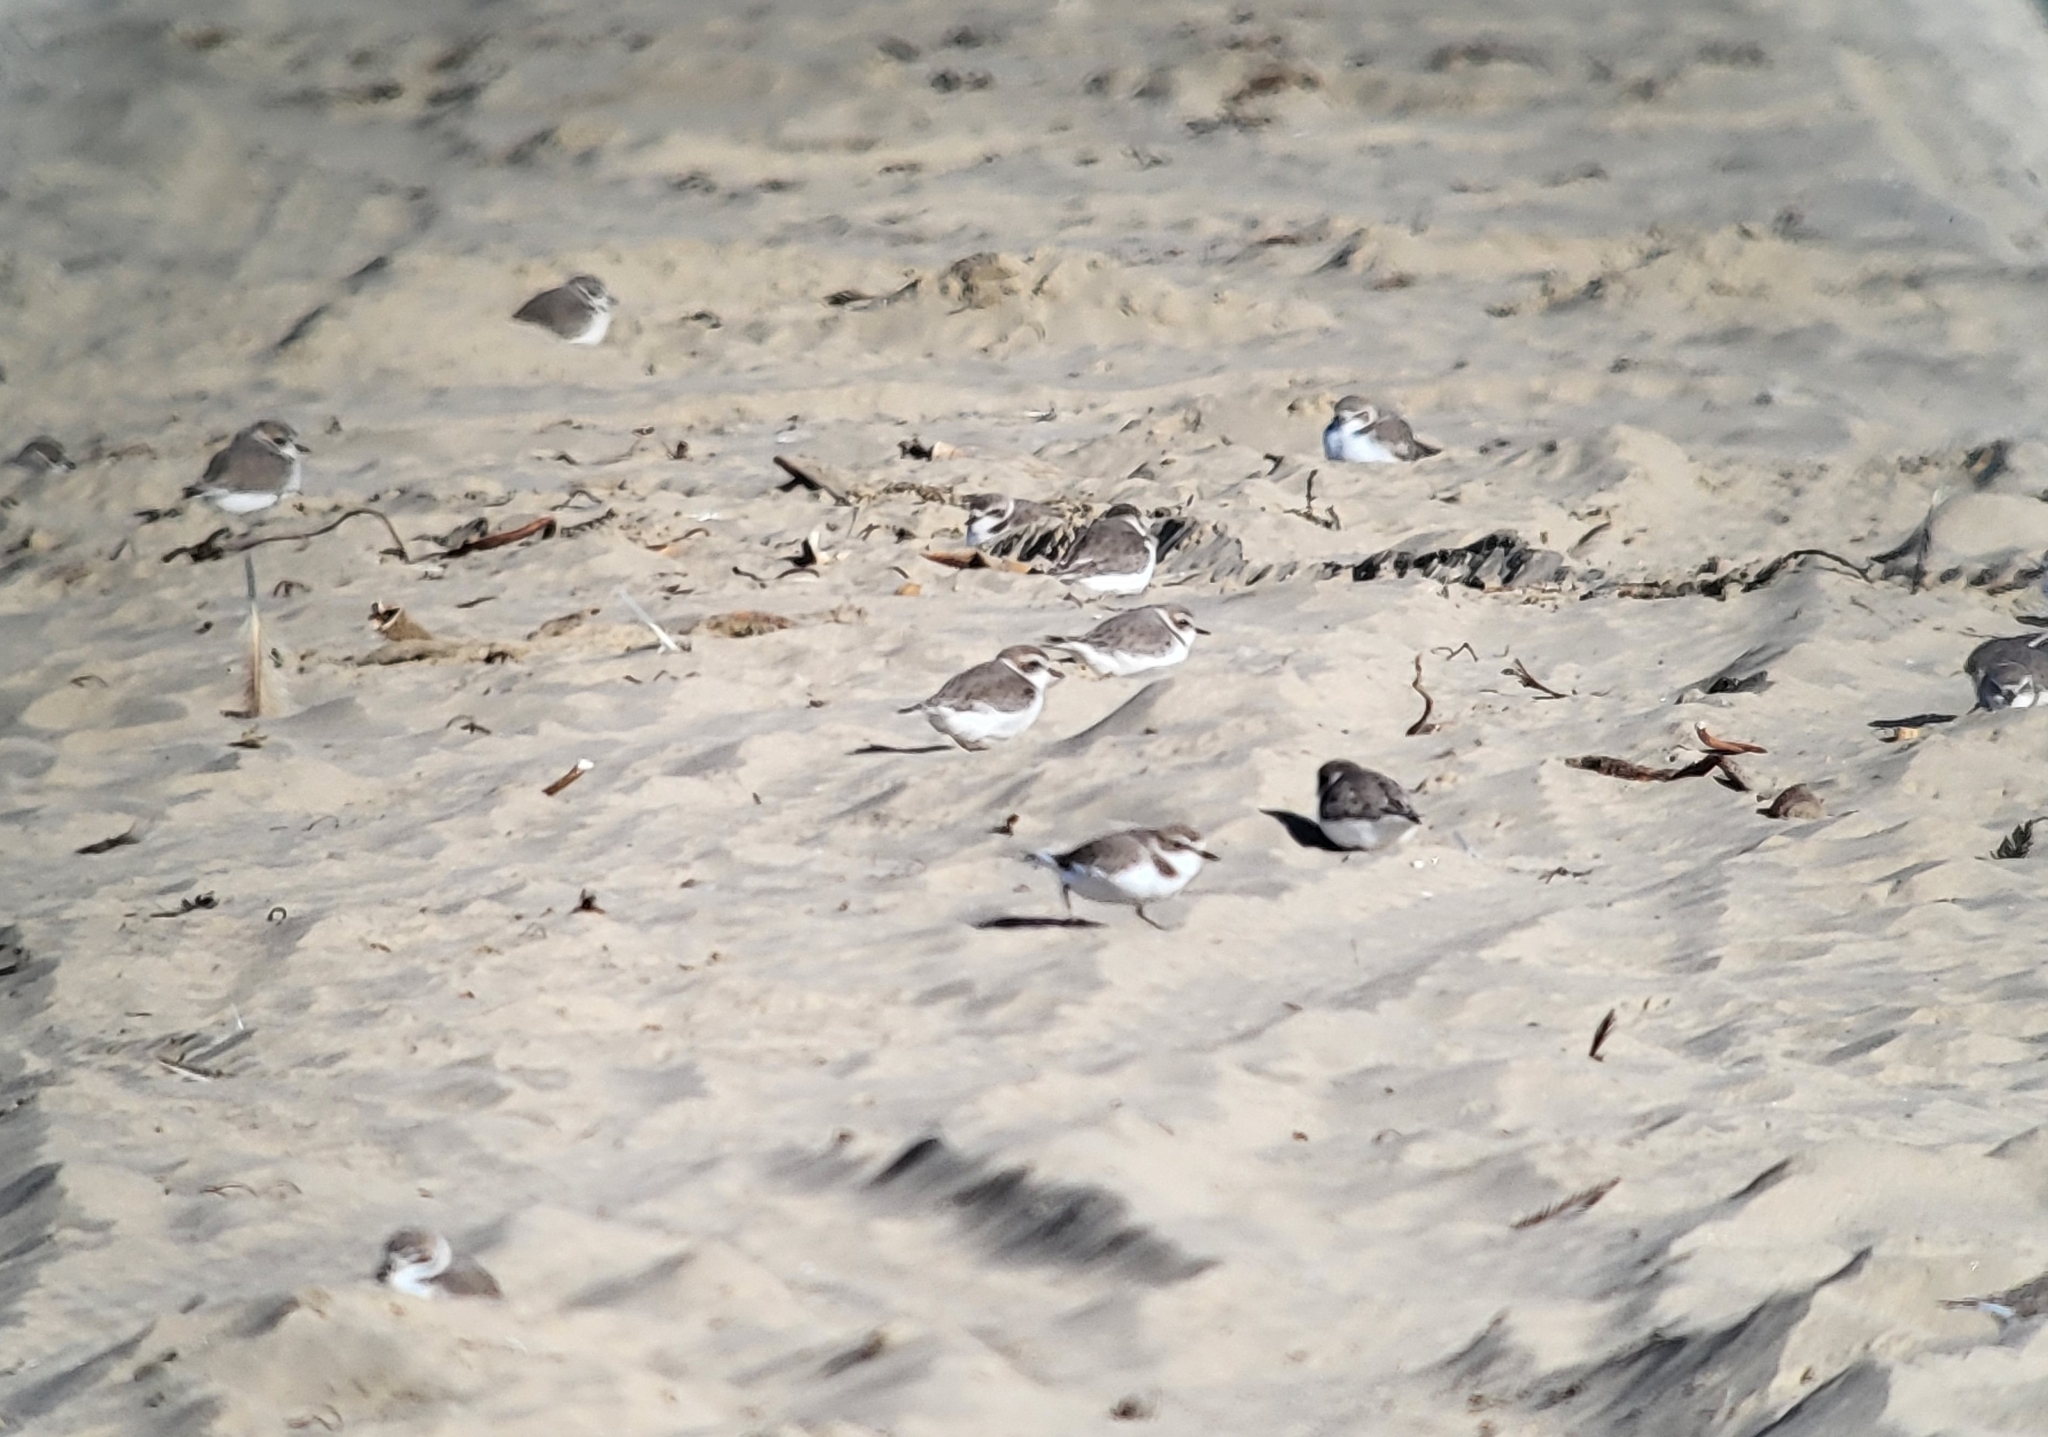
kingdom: Animalia
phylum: Chordata
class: Aves
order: Charadriiformes
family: Charadriidae
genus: Anarhynchus
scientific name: Anarhynchus
